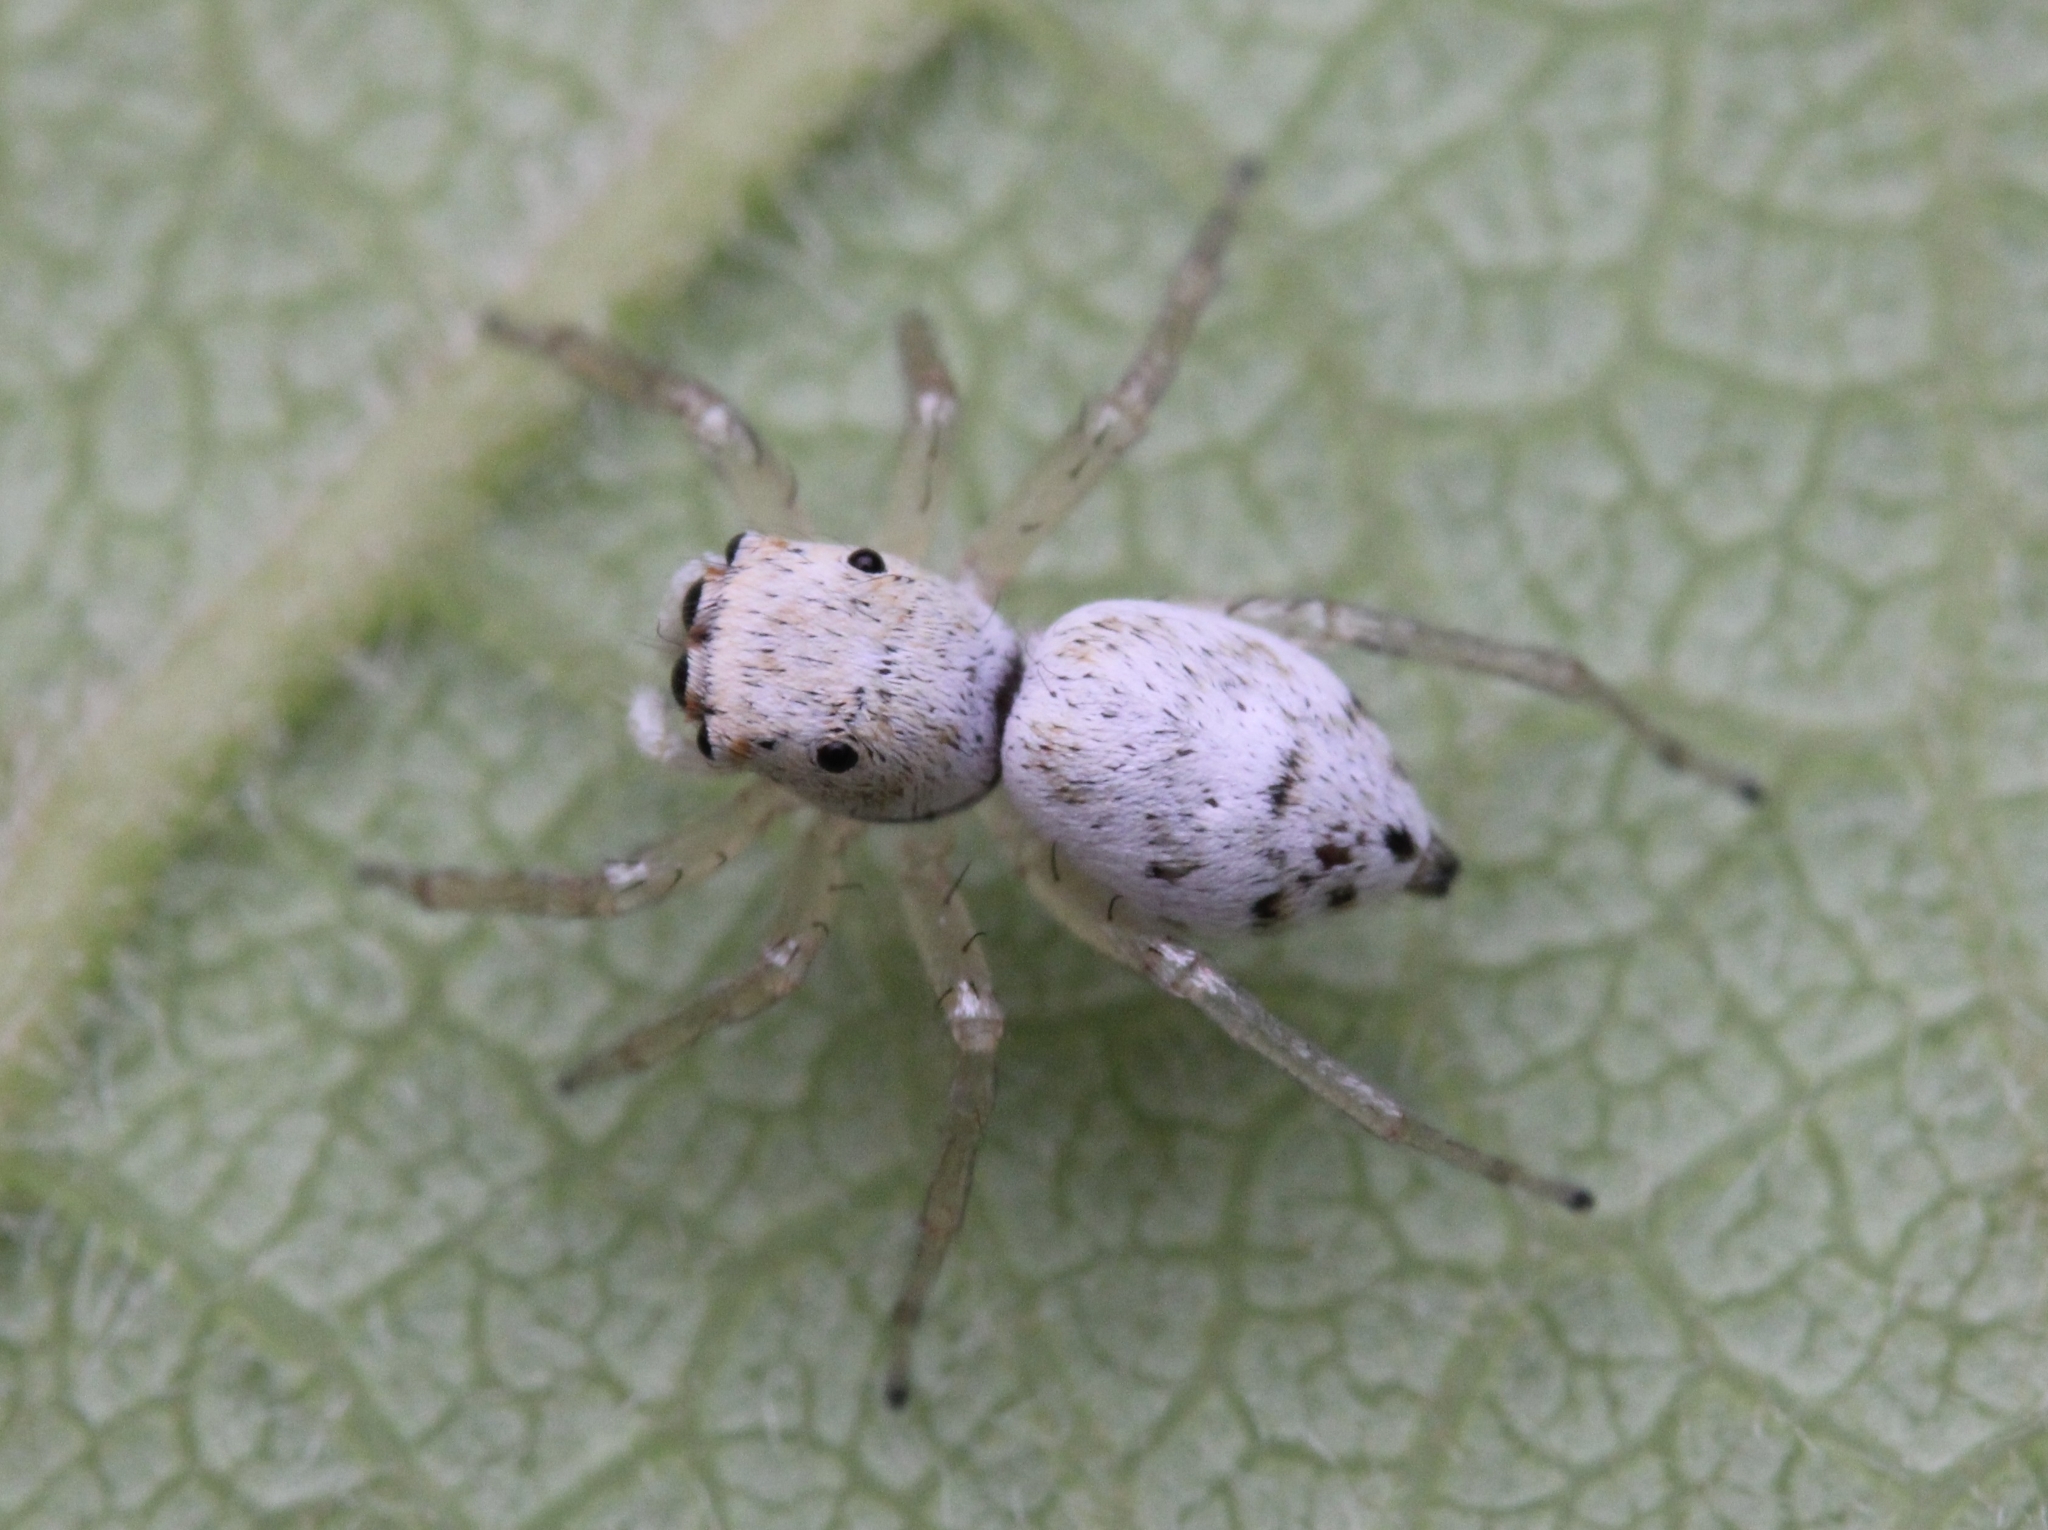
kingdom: Animalia
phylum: Arthropoda
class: Arachnida
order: Araneae
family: Salticidae
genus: Phintella
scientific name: Phintella lajuma
